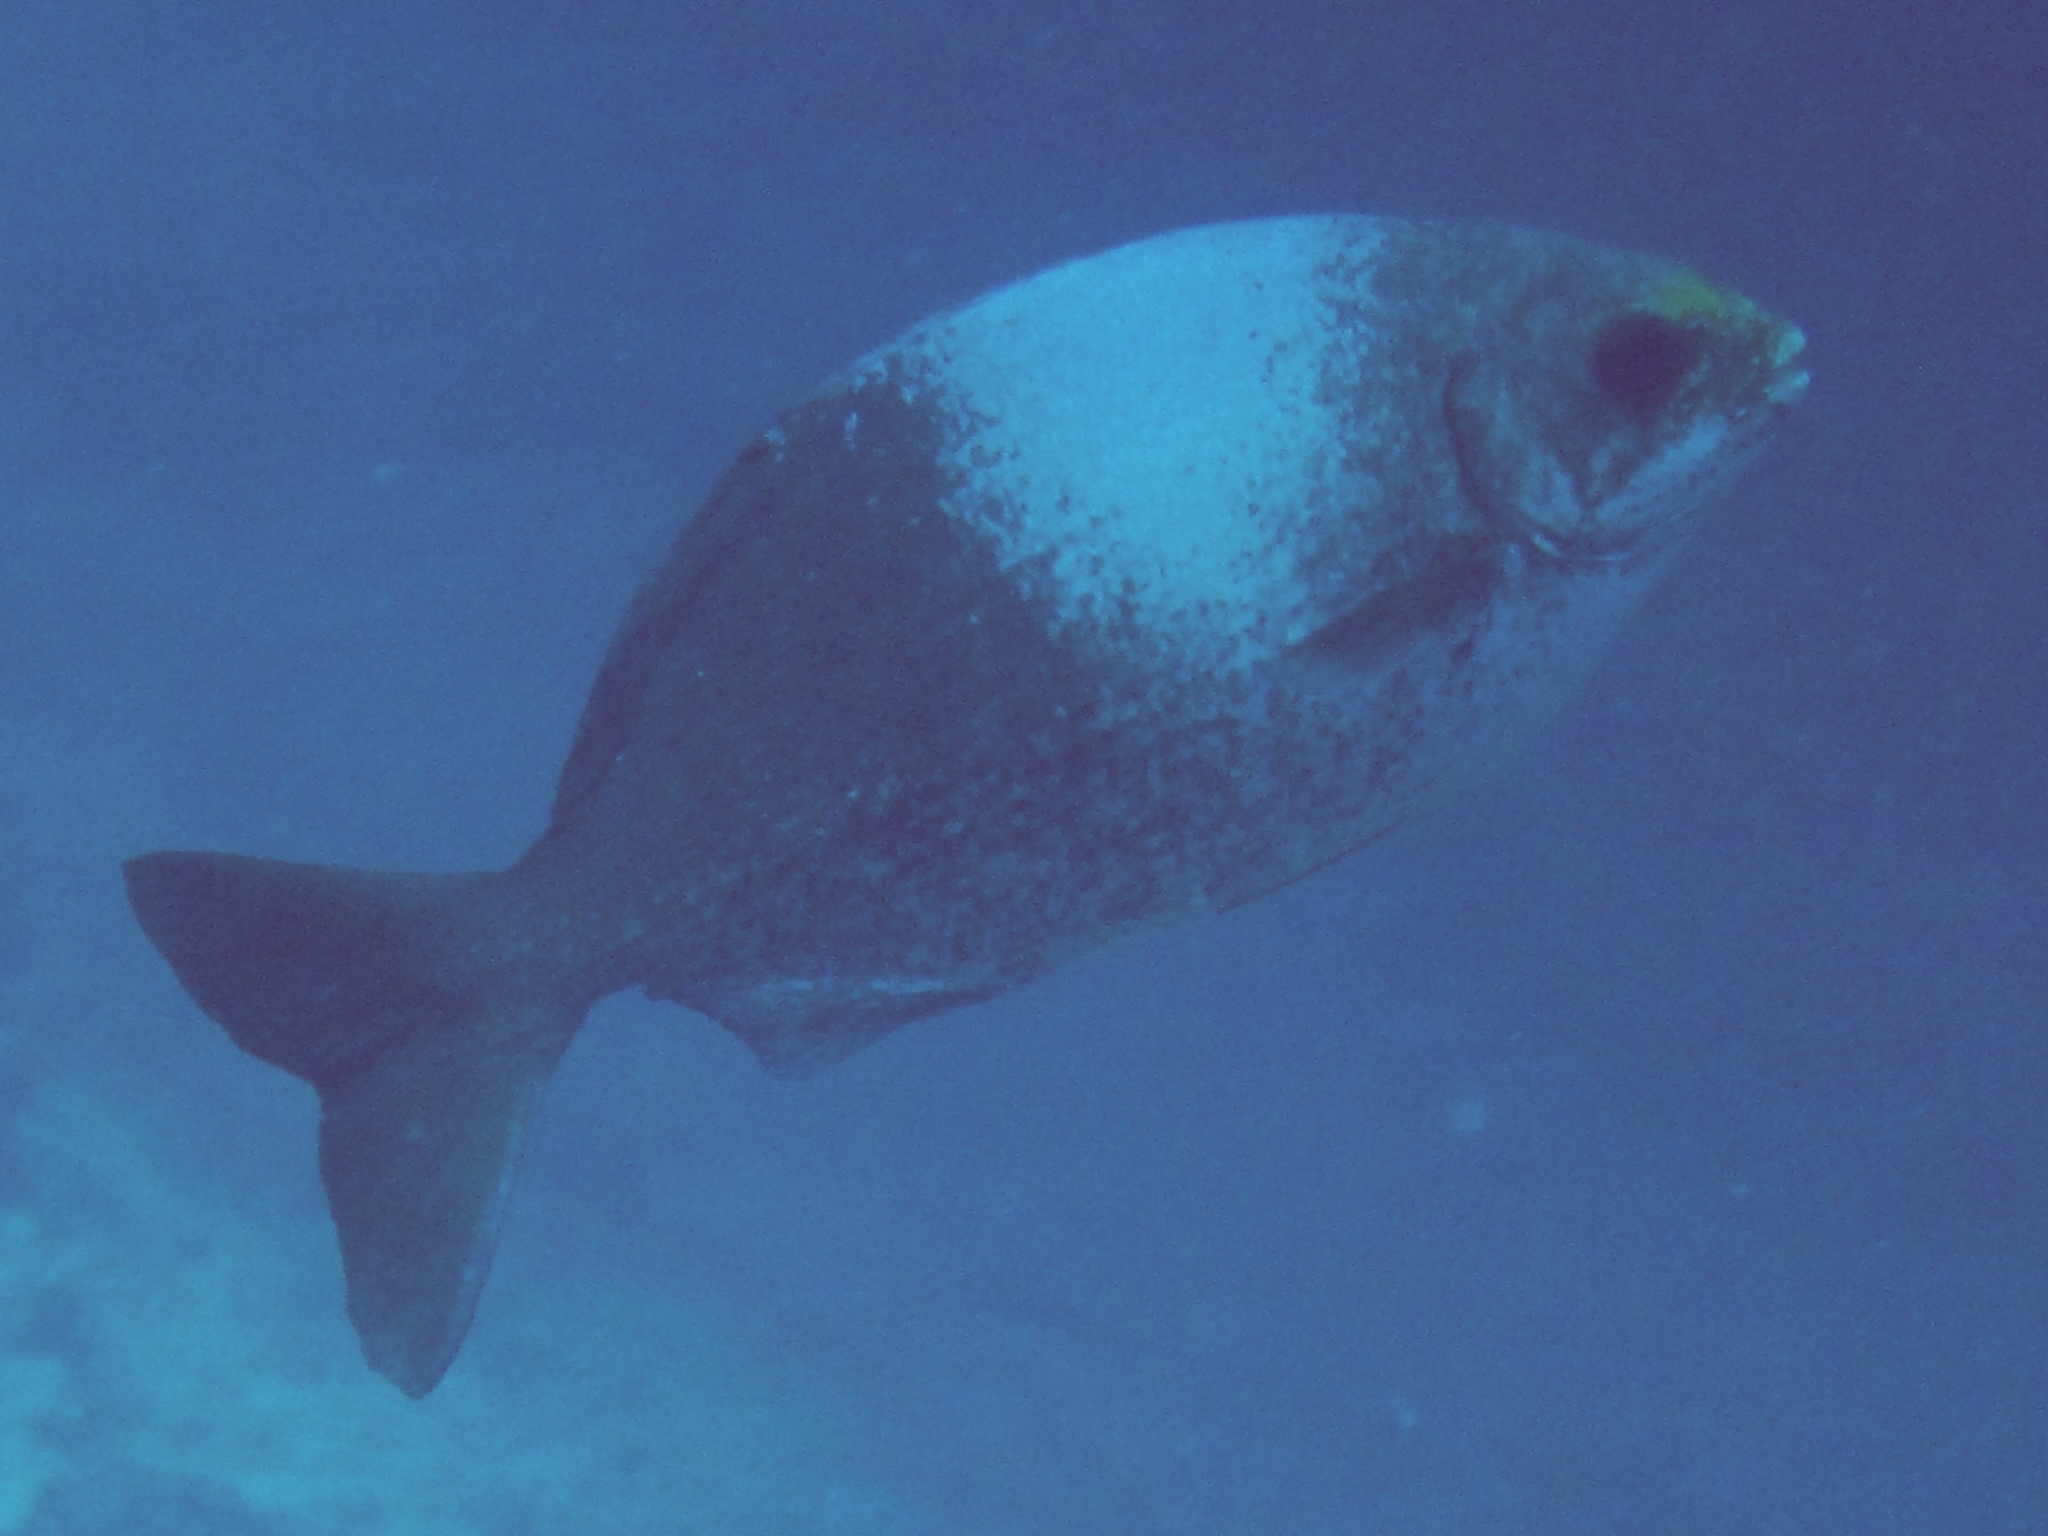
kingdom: Animalia
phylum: Chordata
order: Perciformes
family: Kyphosidae
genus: Kyphosus
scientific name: Kyphosus hawaiiensis
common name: Hawaiian chub
